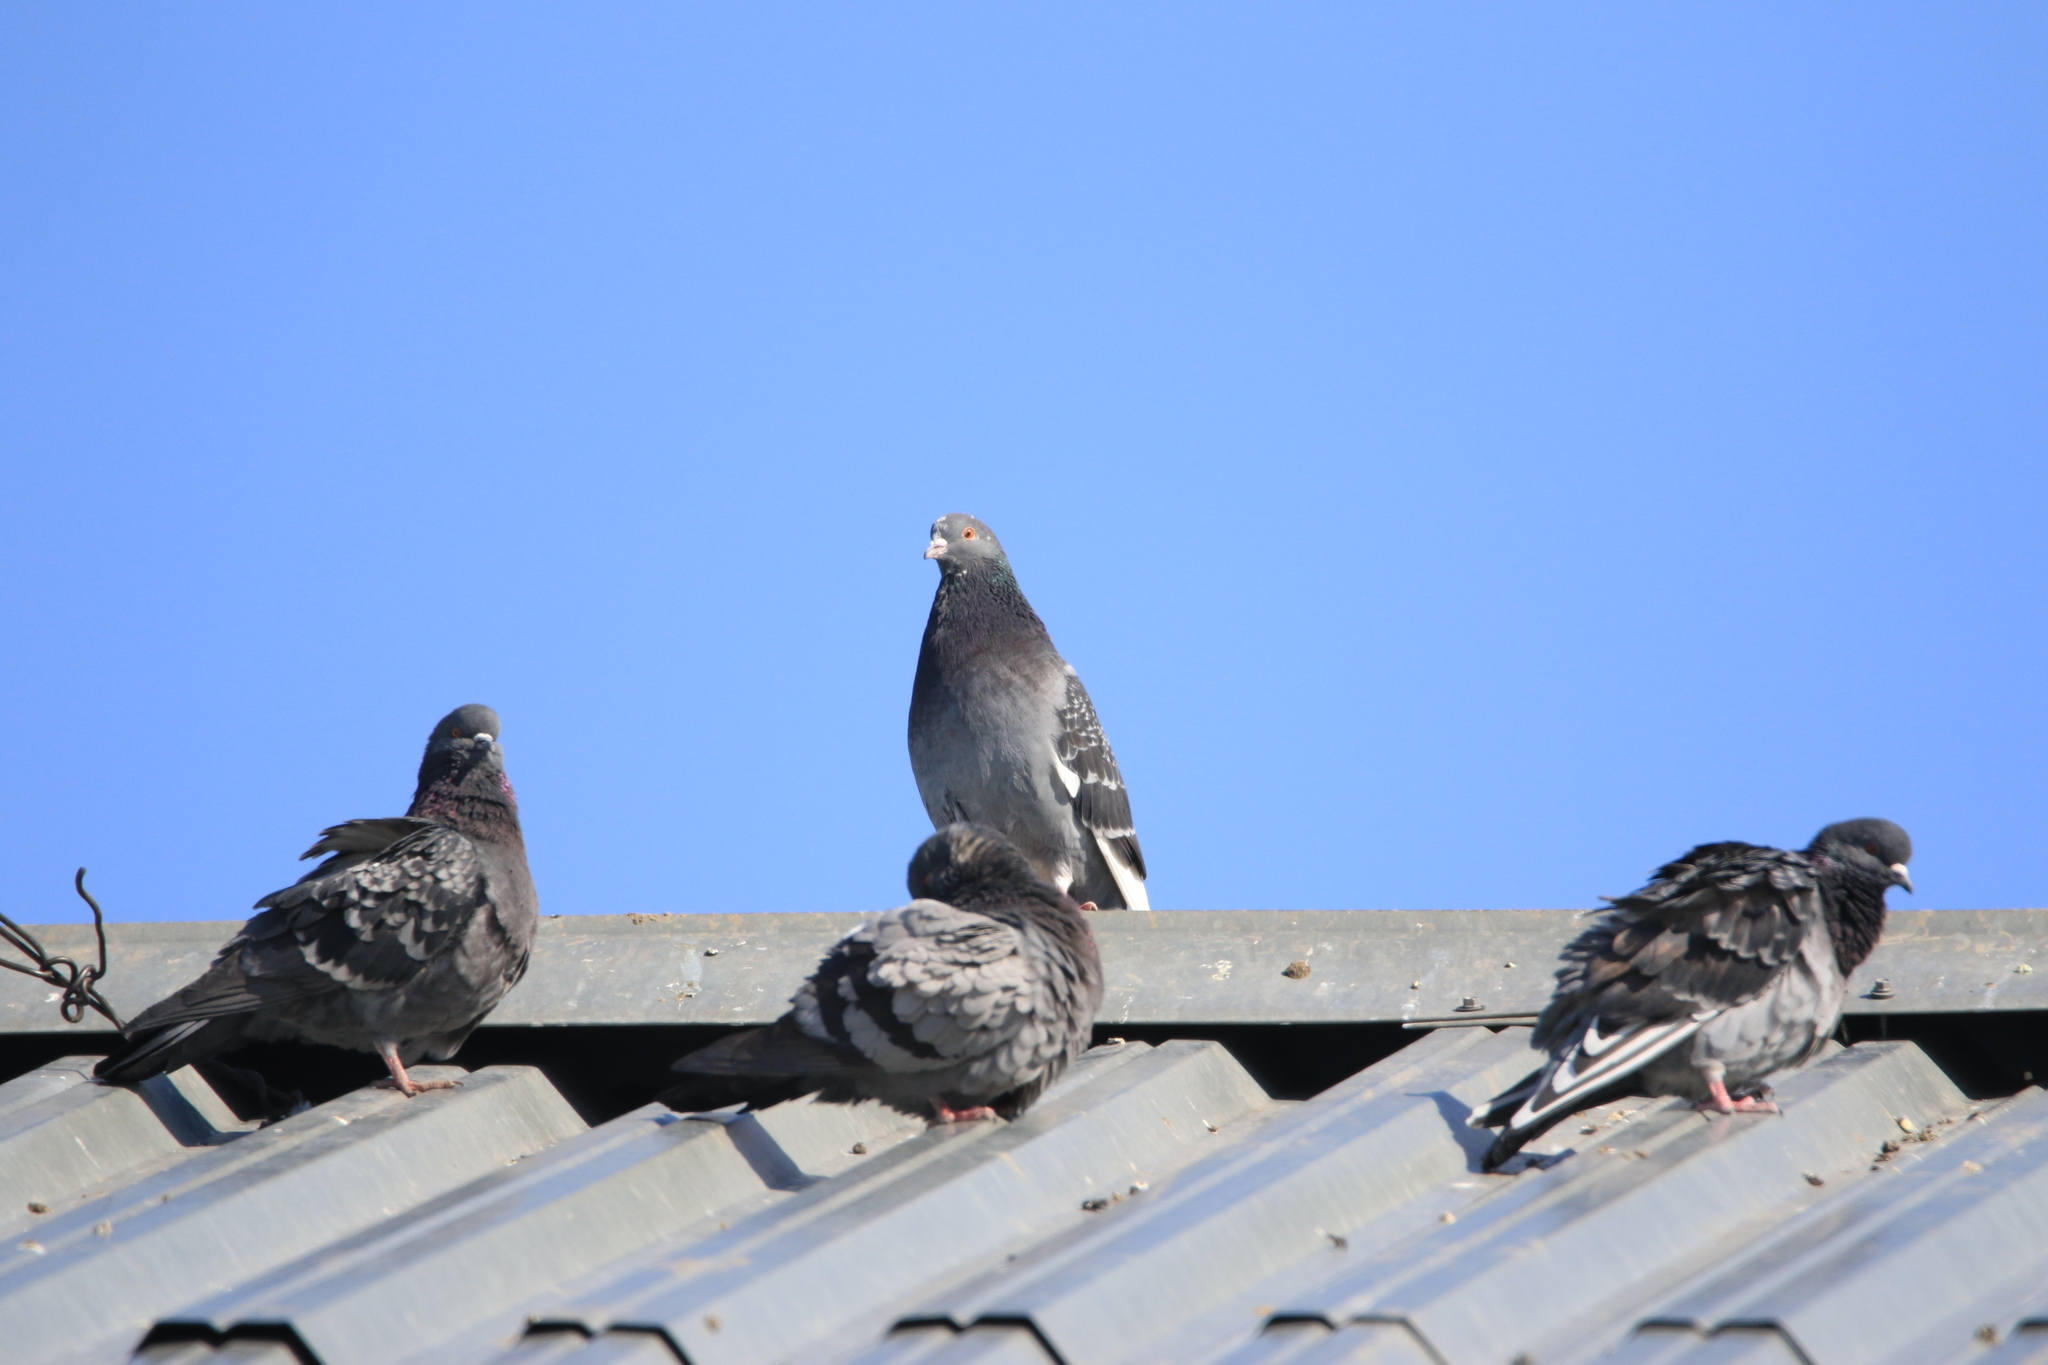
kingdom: Animalia
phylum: Chordata
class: Aves
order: Columbiformes
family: Columbidae
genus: Columba
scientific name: Columba livia
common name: Rock pigeon
